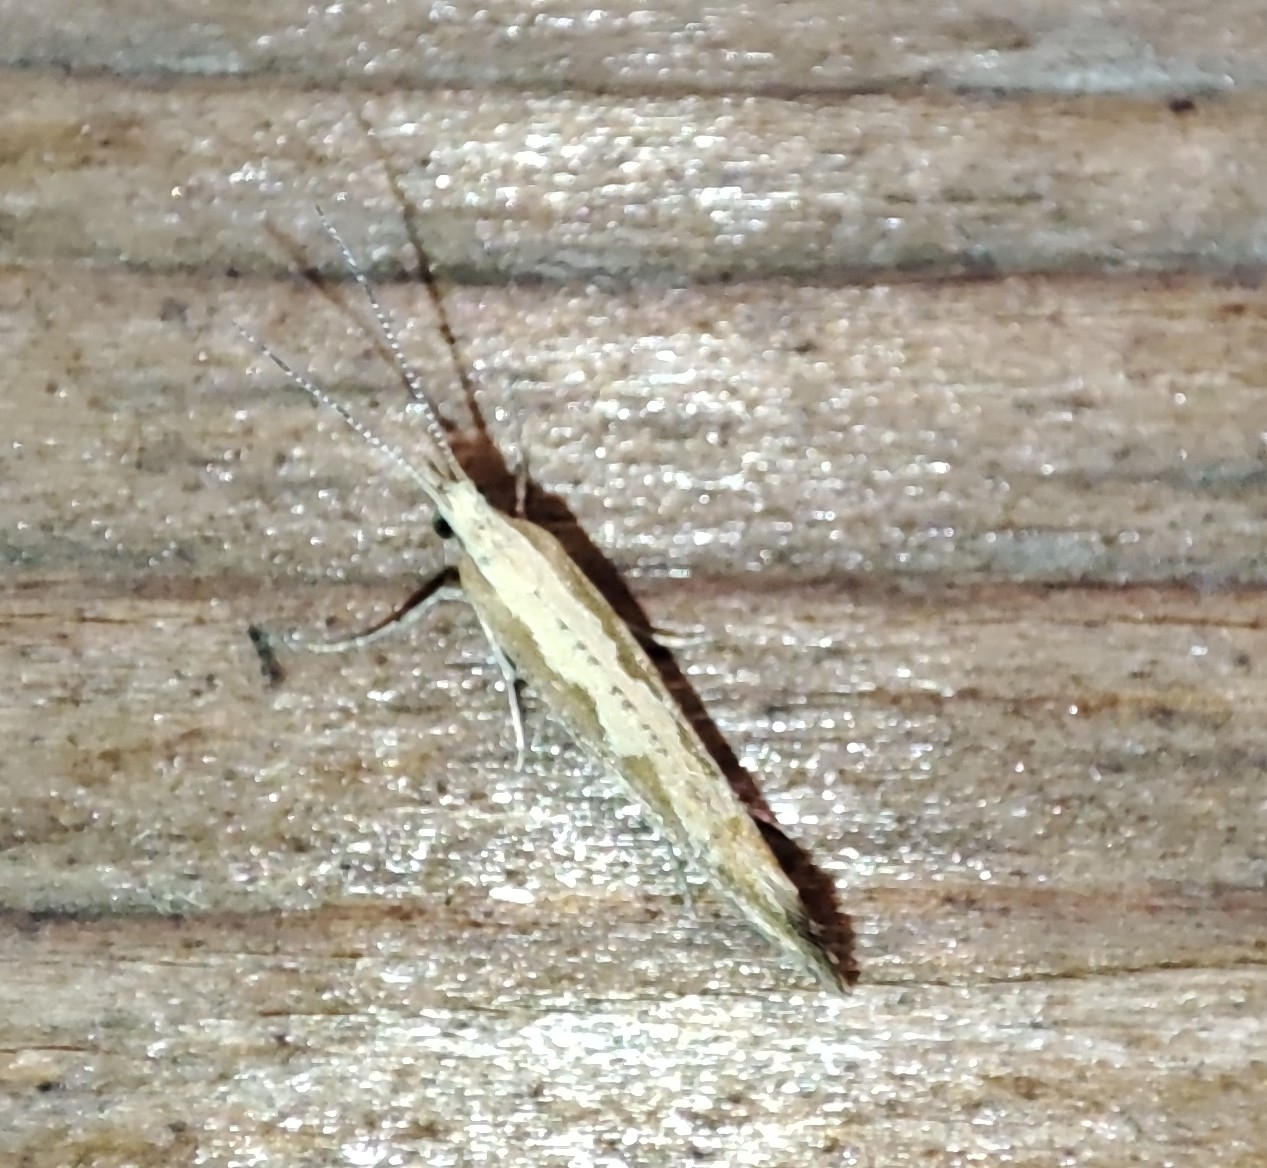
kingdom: Animalia
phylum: Arthropoda
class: Insecta
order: Lepidoptera
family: Plutellidae
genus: Plutella
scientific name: Plutella xylostella
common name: Diamond-back moth
